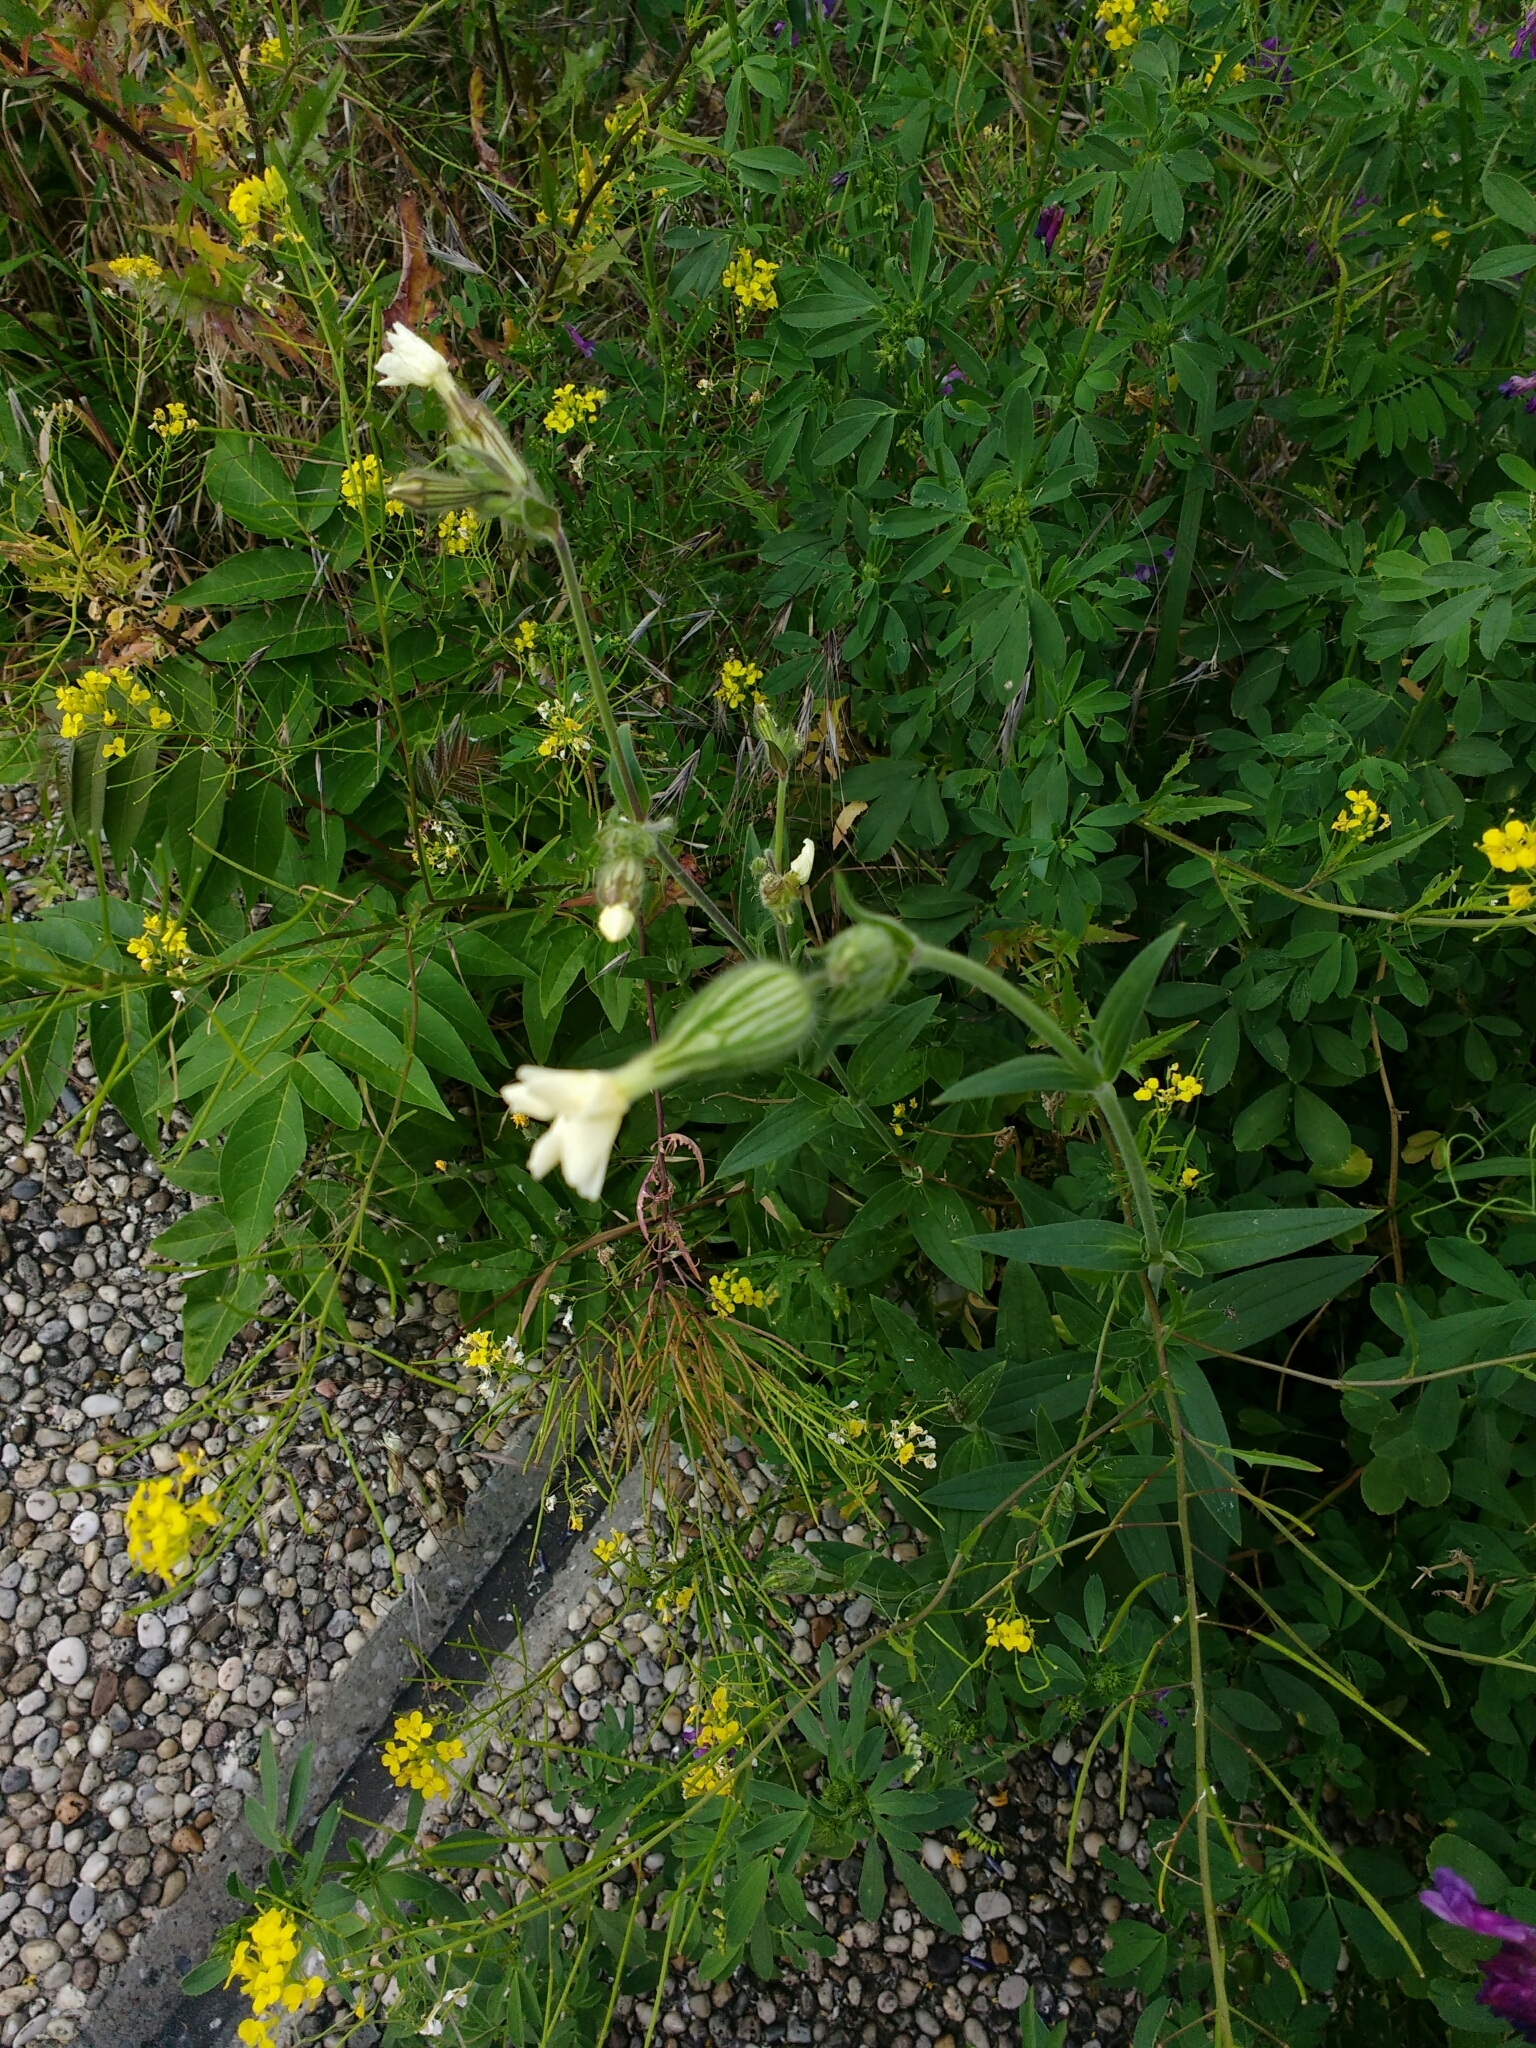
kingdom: Plantae
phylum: Tracheophyta
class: Magnoliopsida
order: Caryophyllales
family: Caryophyllaceae
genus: Silene
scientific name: Silene latifolia
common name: White campion
